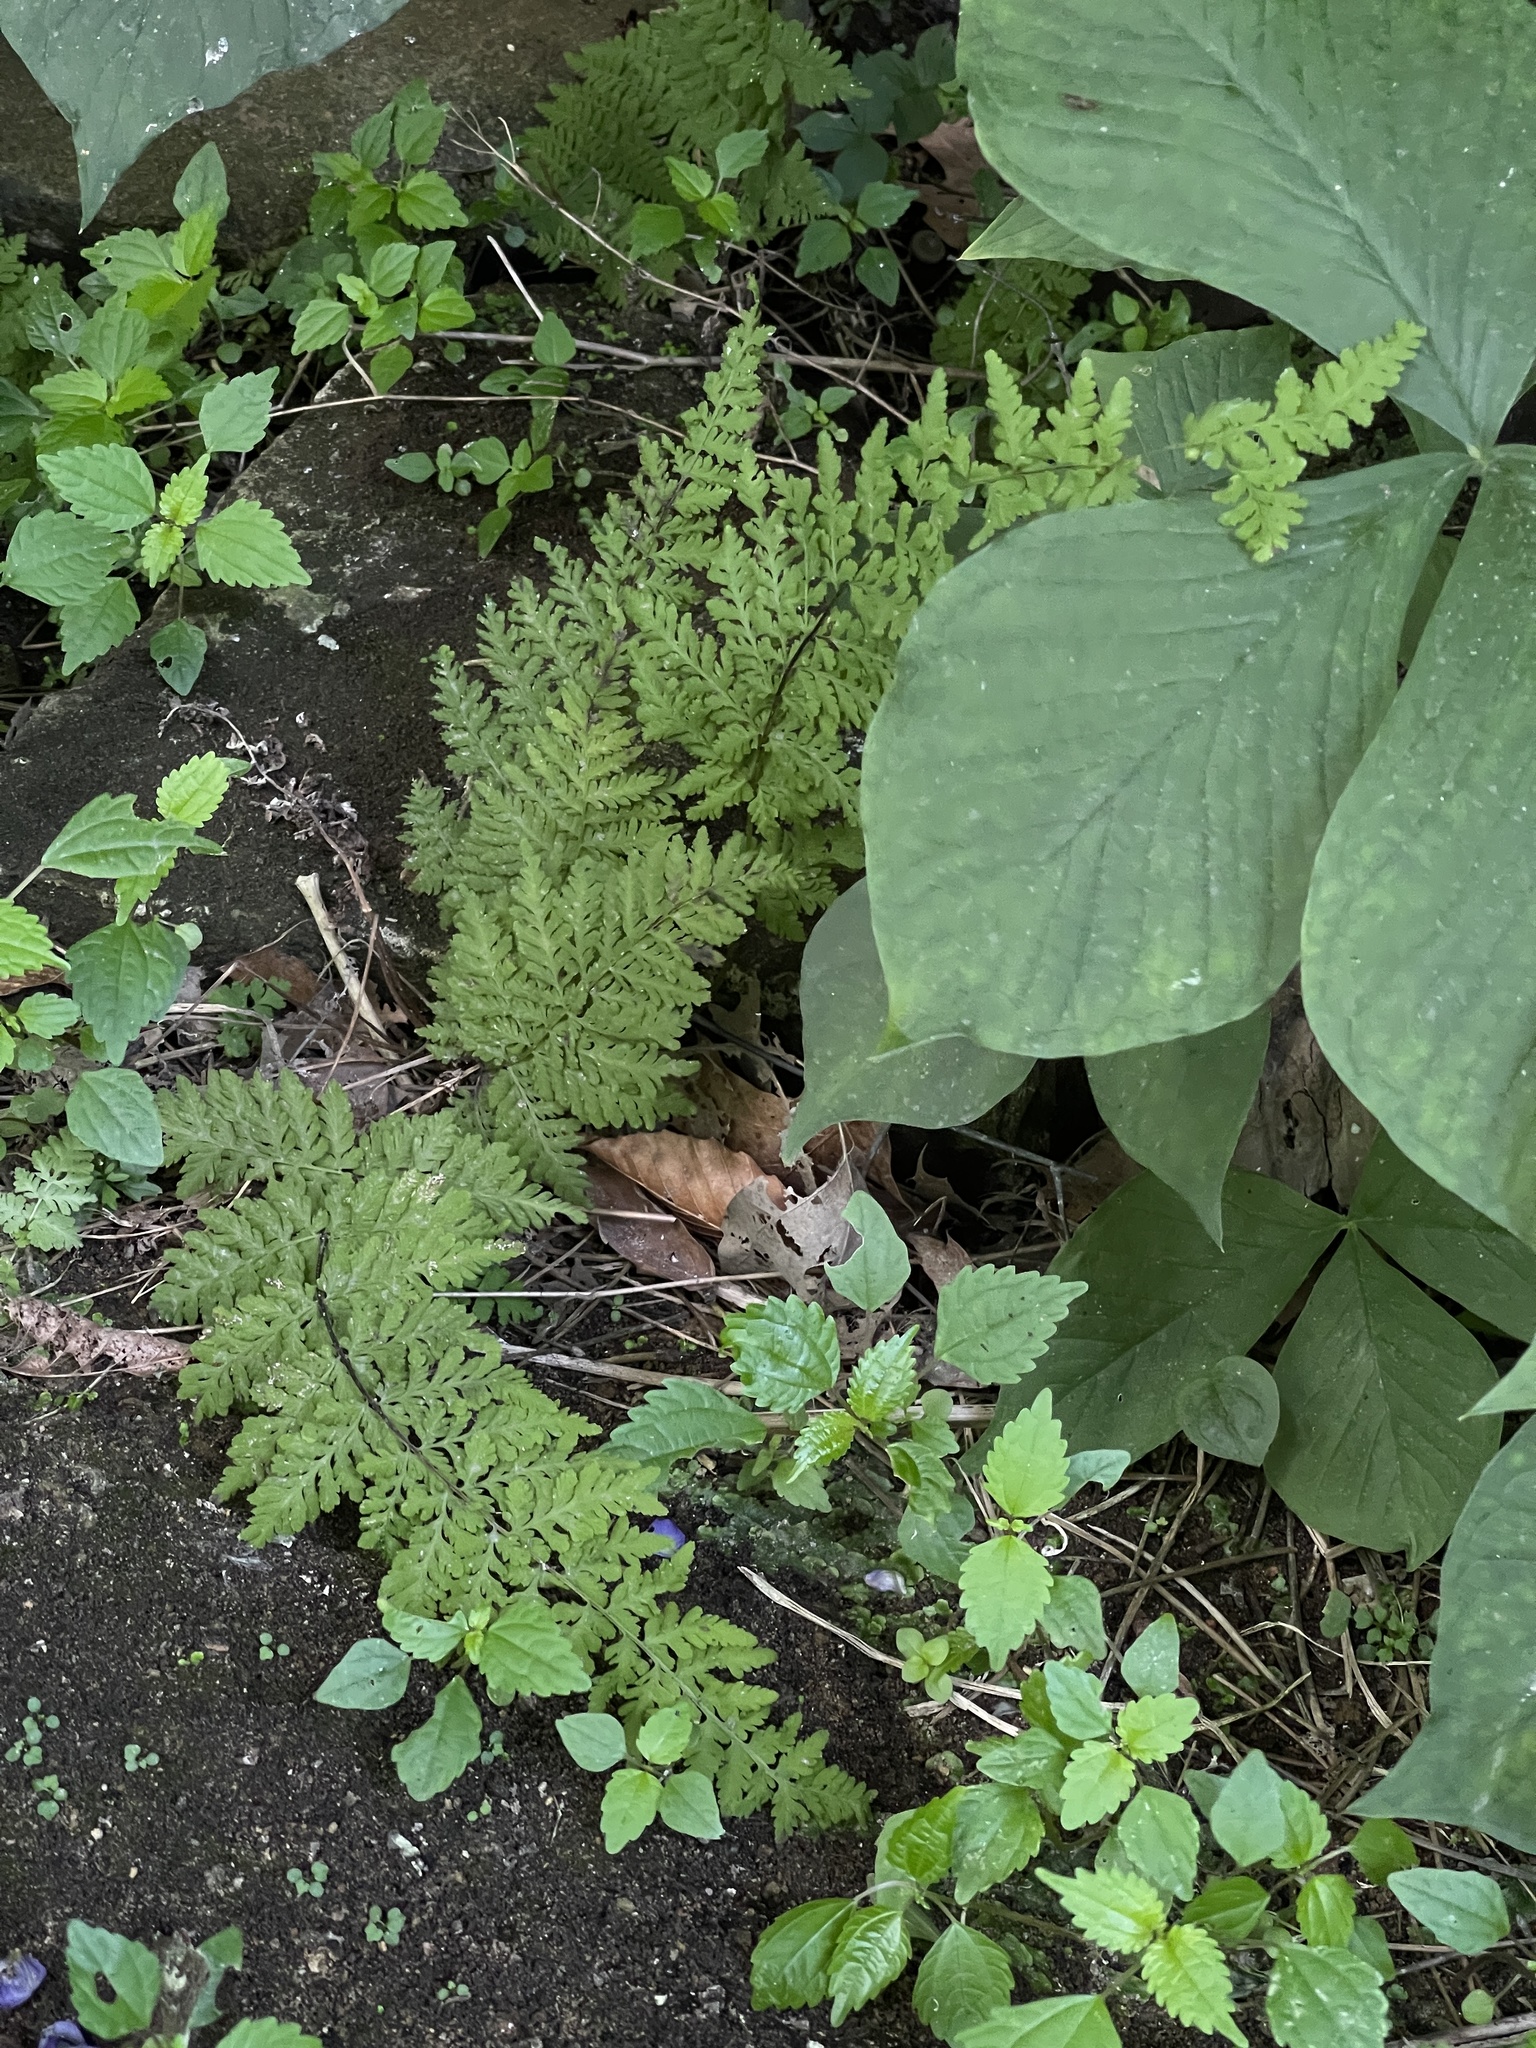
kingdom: Plantae
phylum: Tracheophyta
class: Polypodiopsida
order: Polypodiales
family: Cystopteridaceae
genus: Cystopteris
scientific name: Cystopteris bulbifera
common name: Bulblet bladder fern
